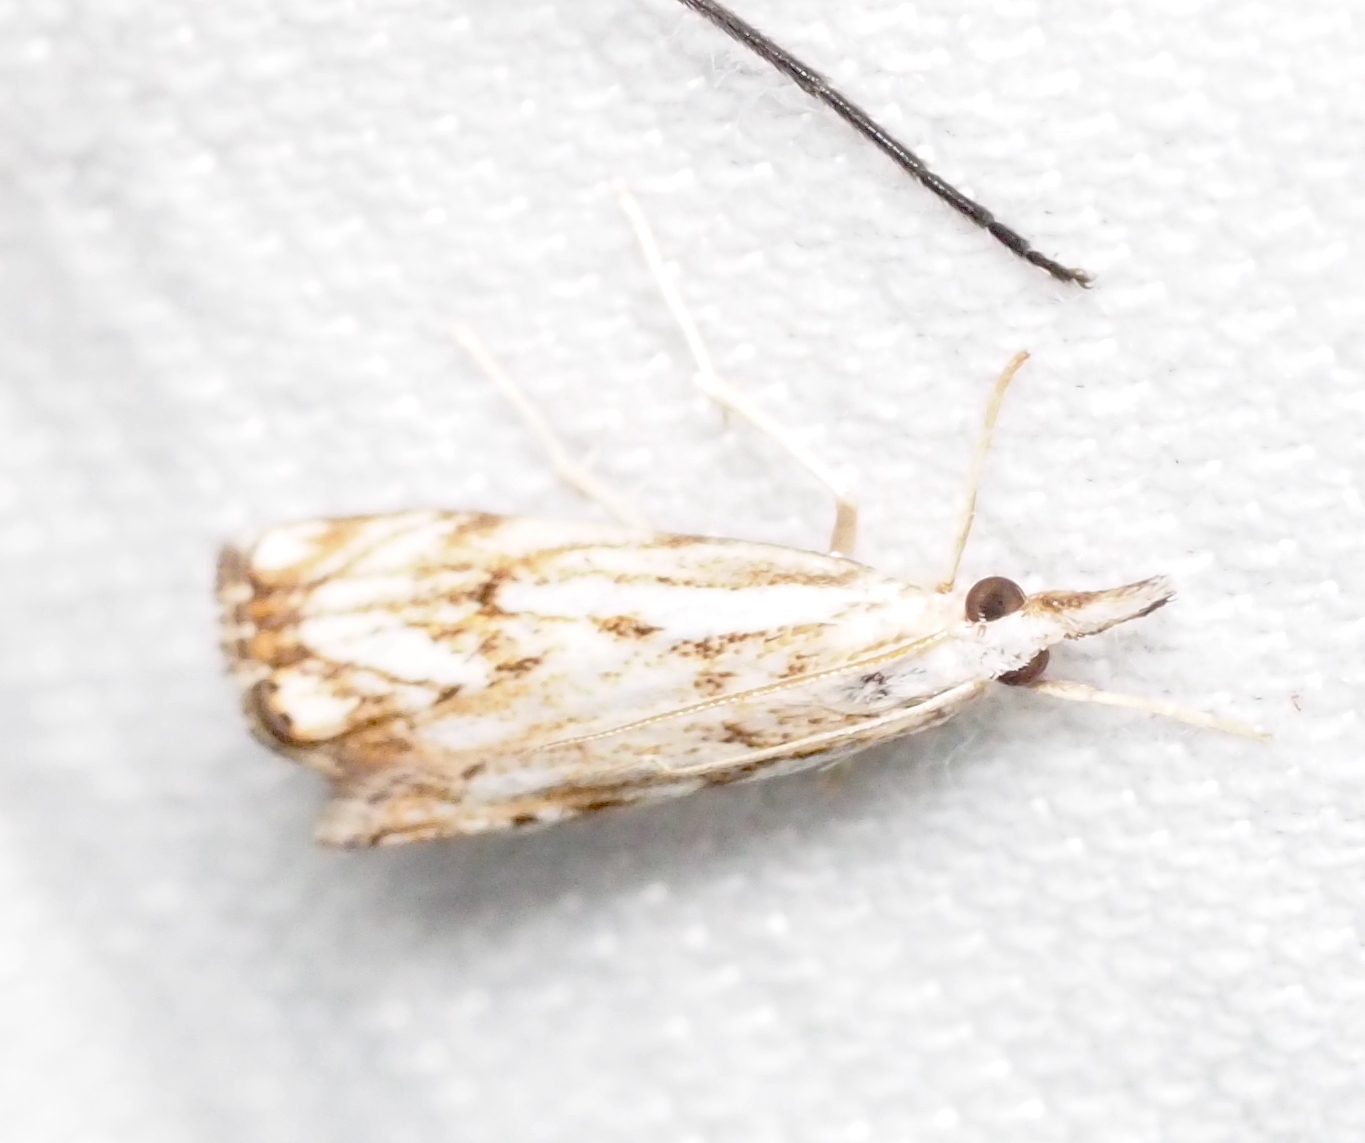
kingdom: Animalia
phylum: Arthropoda
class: Insecta
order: Lepidoptera
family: Crambidae
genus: Catoptria
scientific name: Catoptria falsella
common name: Chequered grass-veneer
